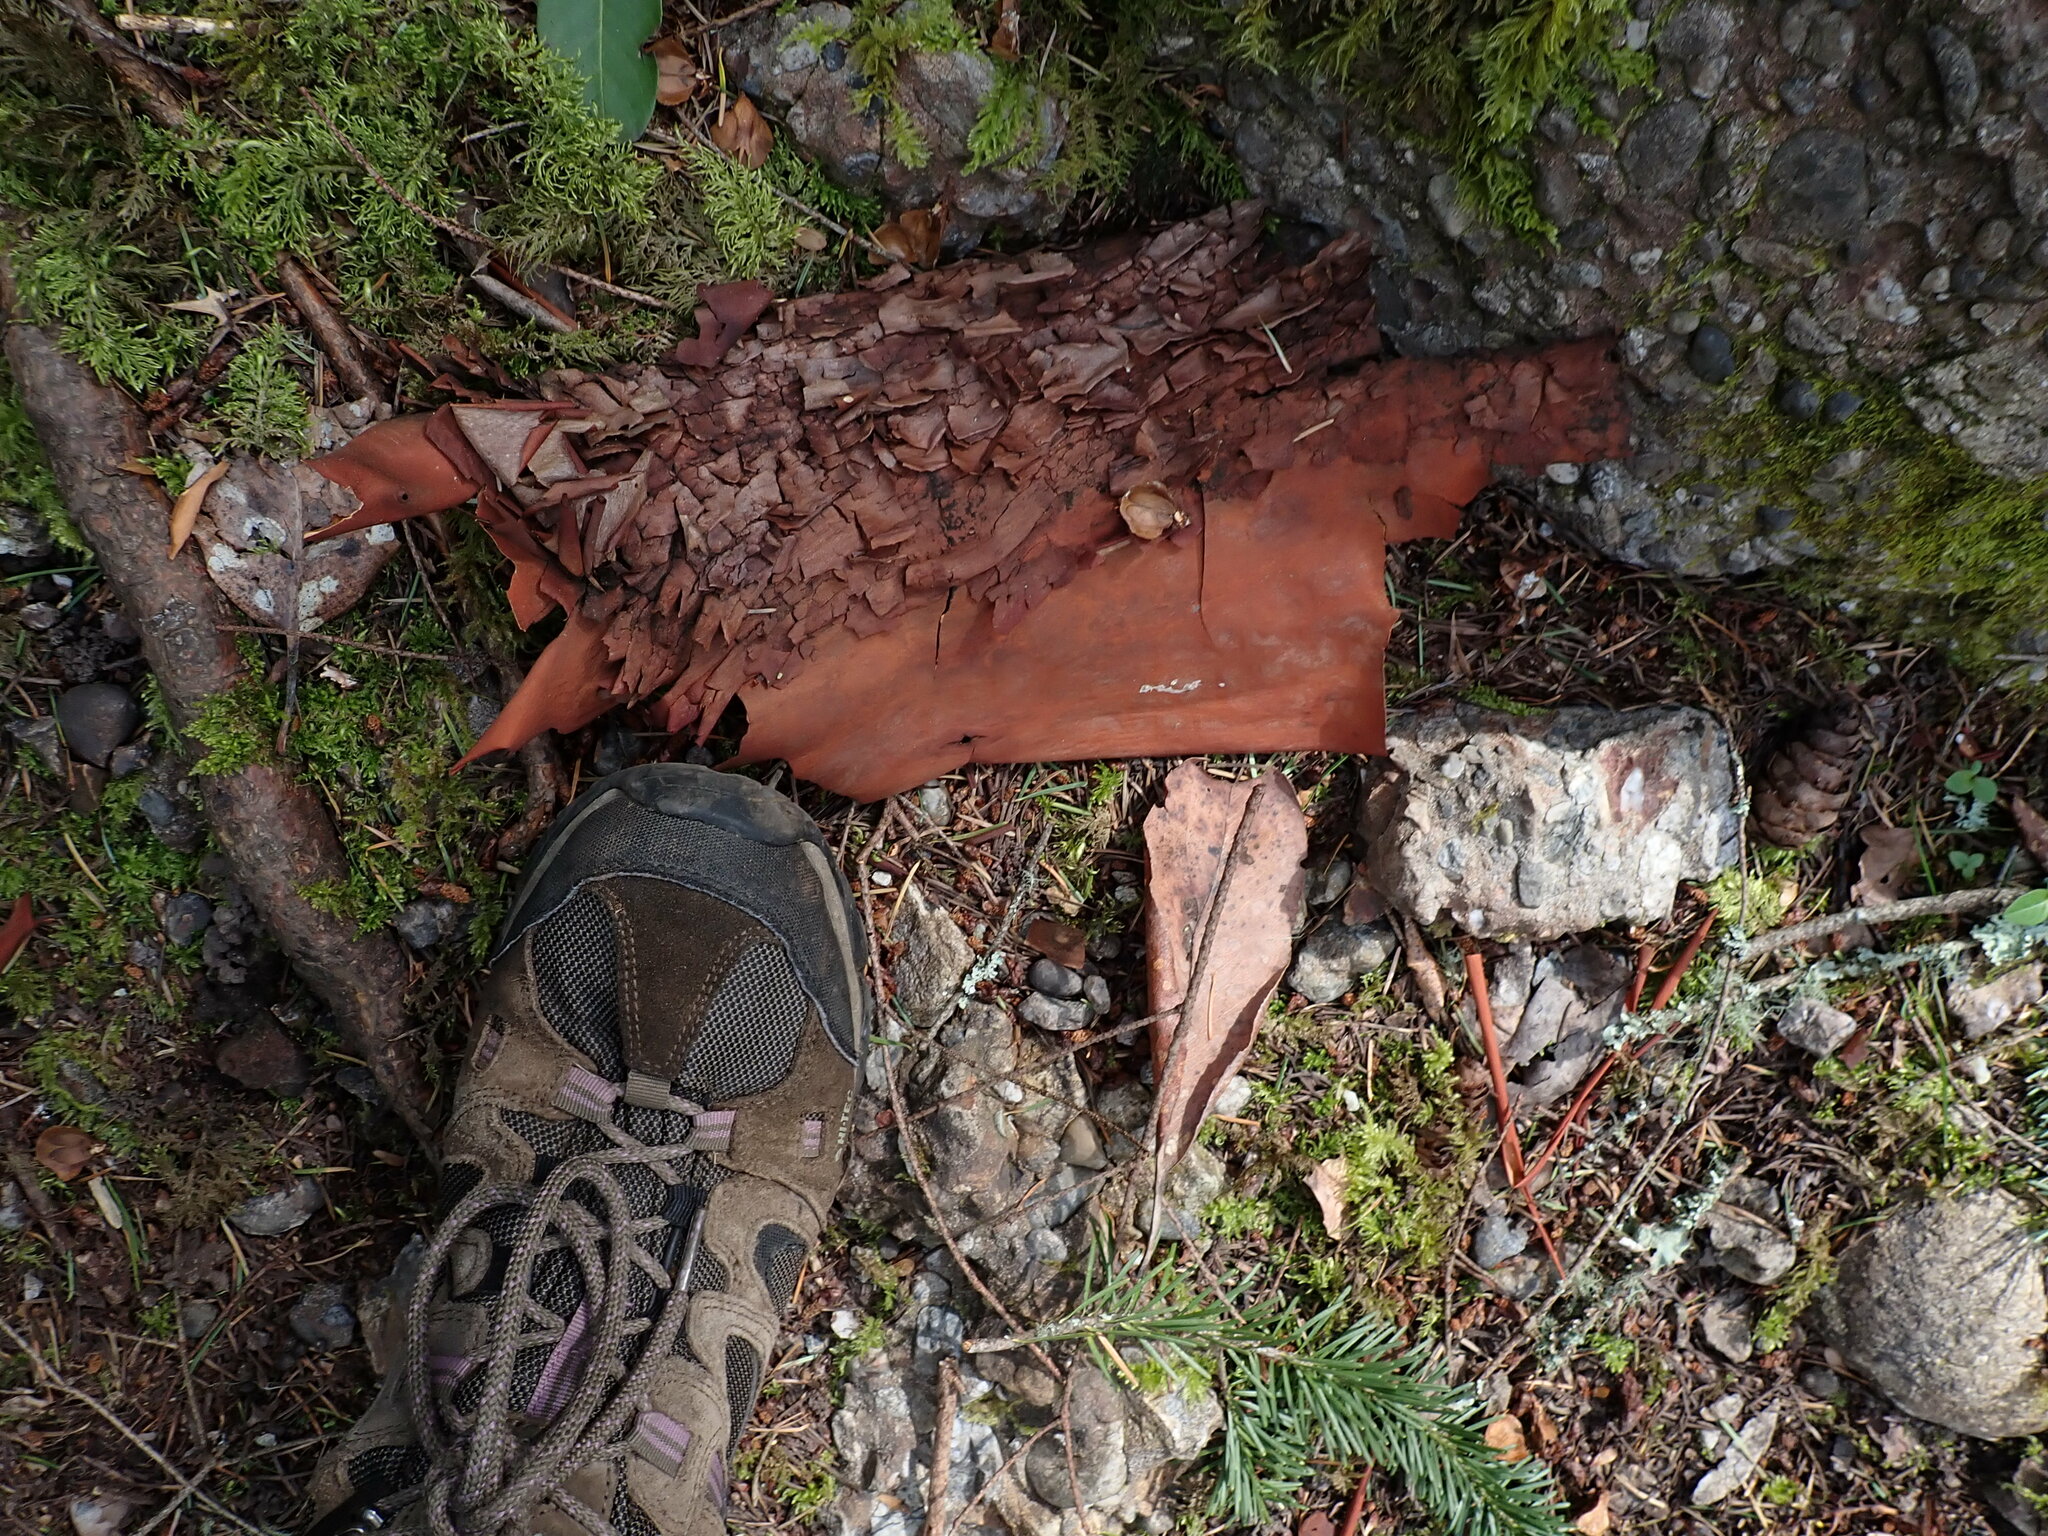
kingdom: Plantae
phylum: Tracheophyta
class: Magnoliopsida
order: Ericales
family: Ericaceae
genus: Arbutus
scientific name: Arbutus menziesii
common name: Pacific madrone
